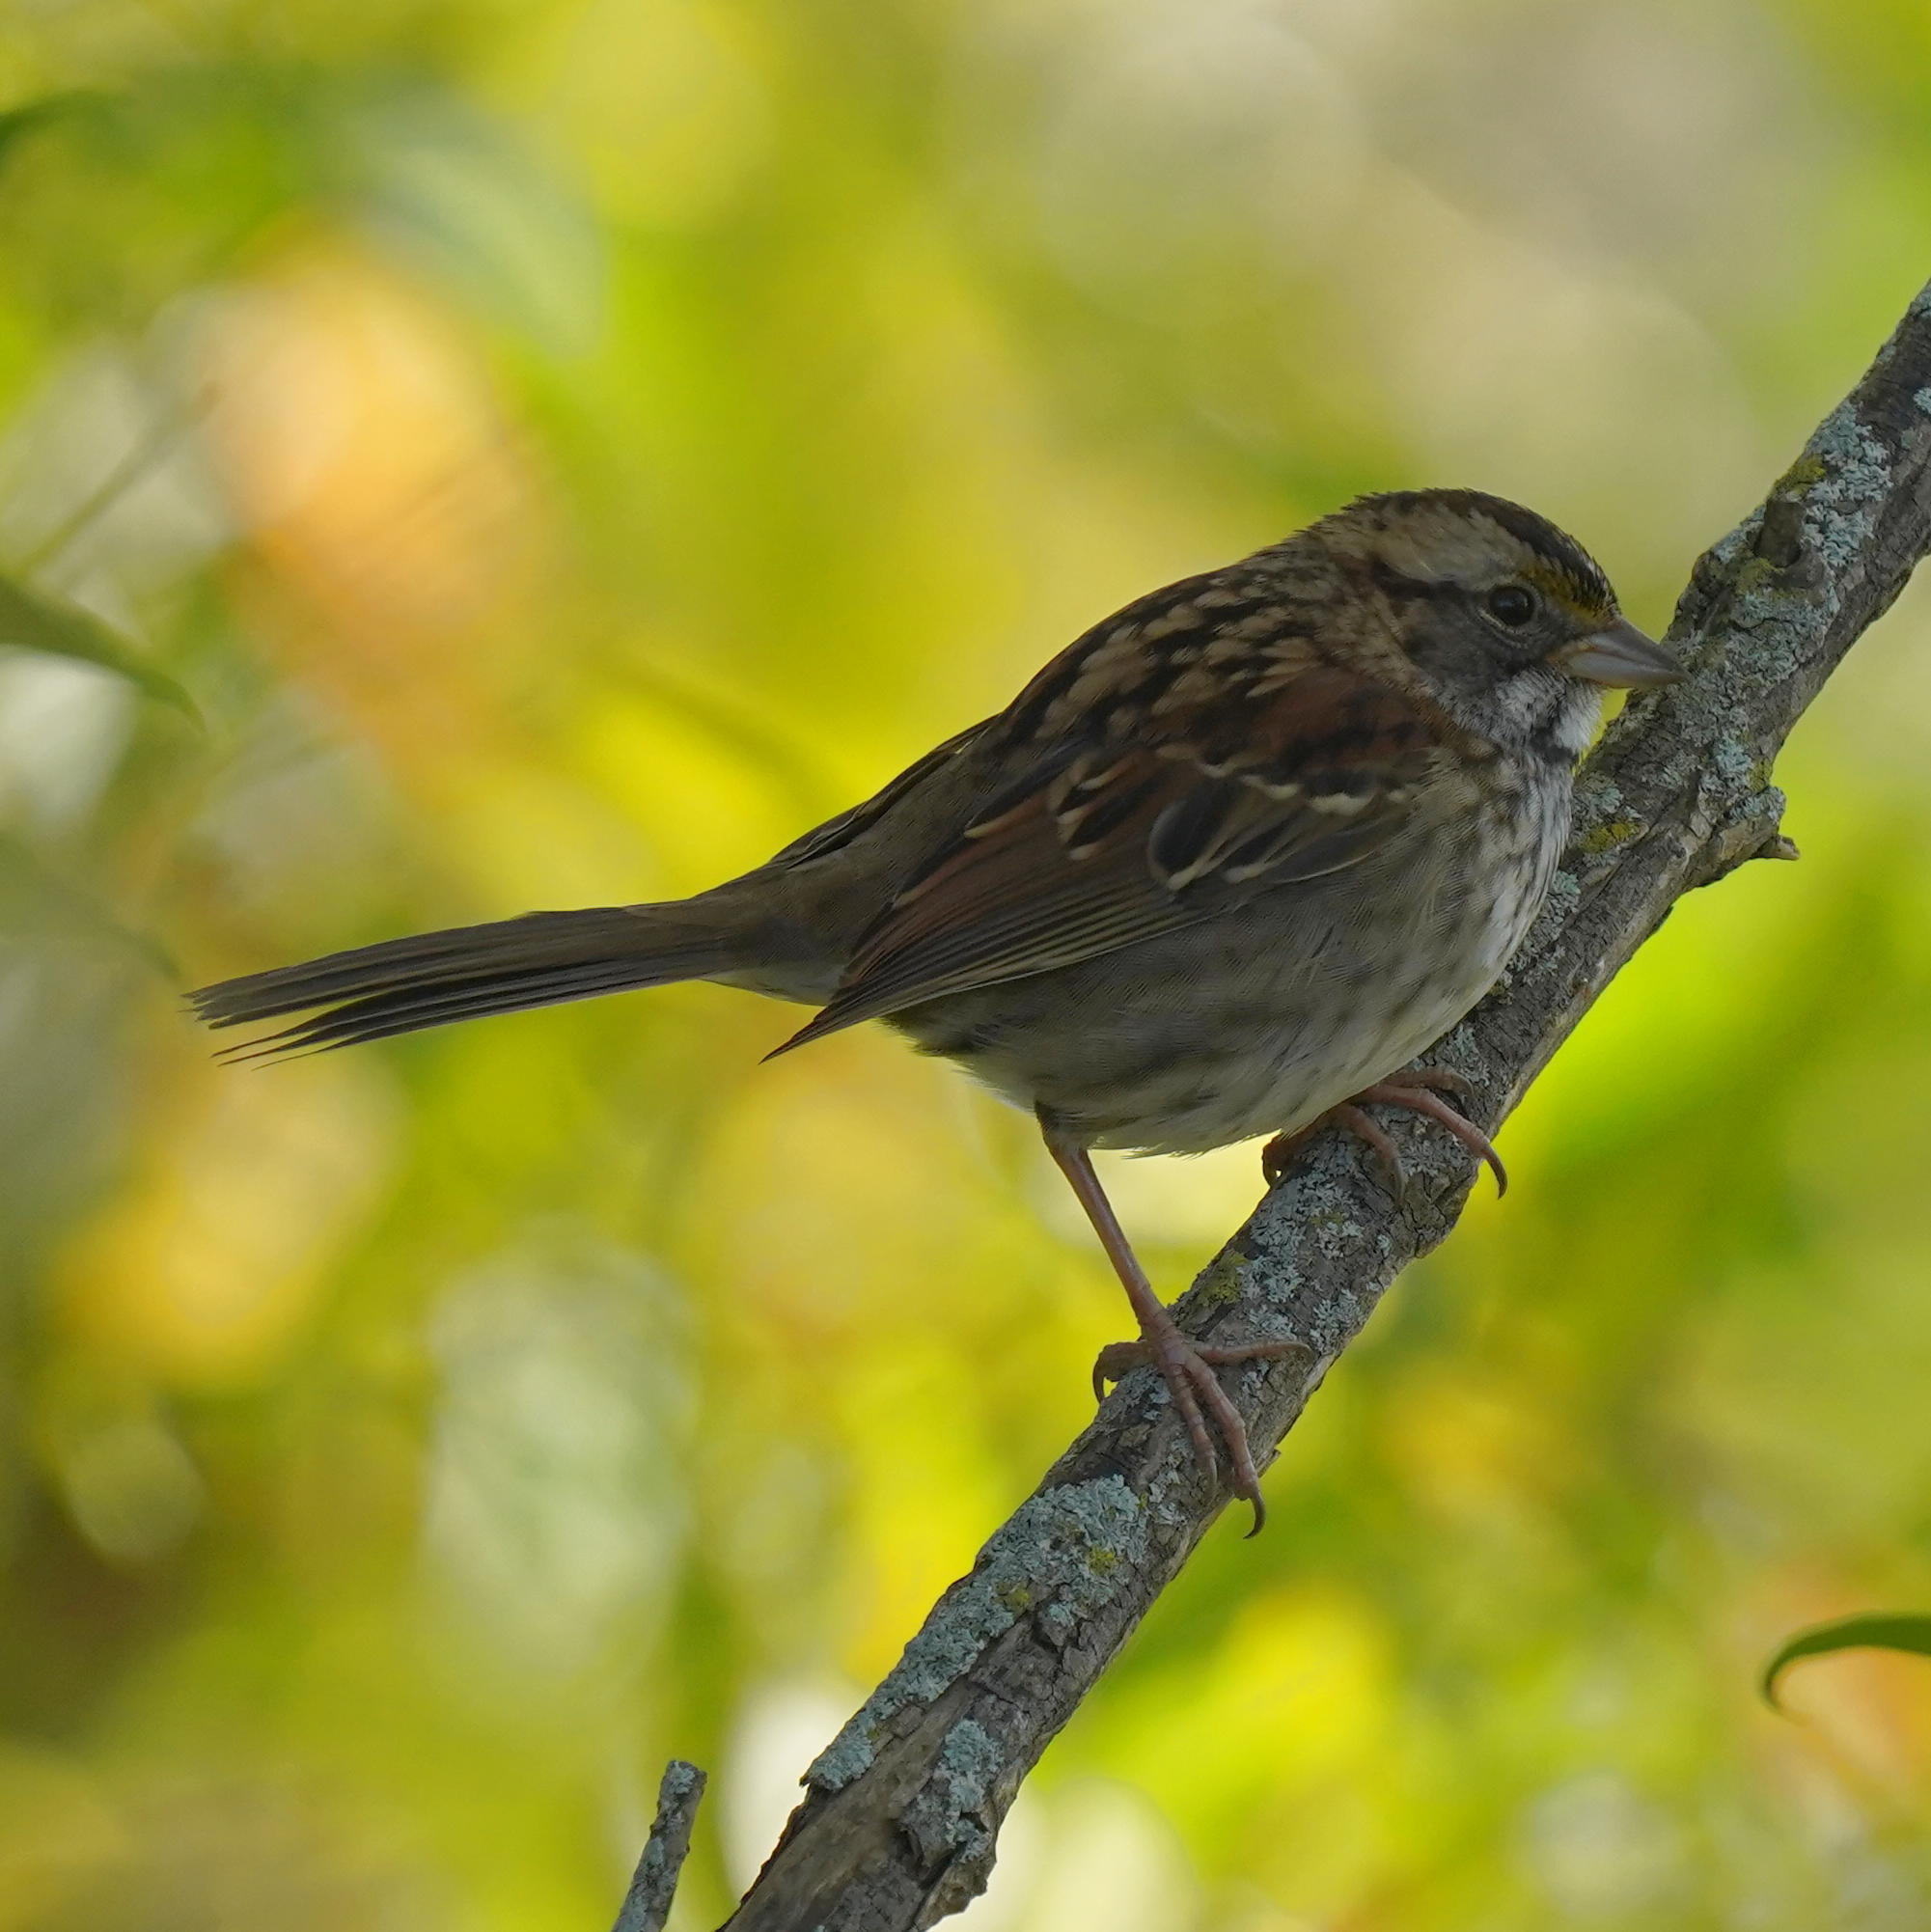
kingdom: Animalia
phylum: Chordata
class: Aves
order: Passeriformes
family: Passerellidae
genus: Zonotrichia
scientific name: Zonotrichia albicollis
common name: White-throated sparrow
